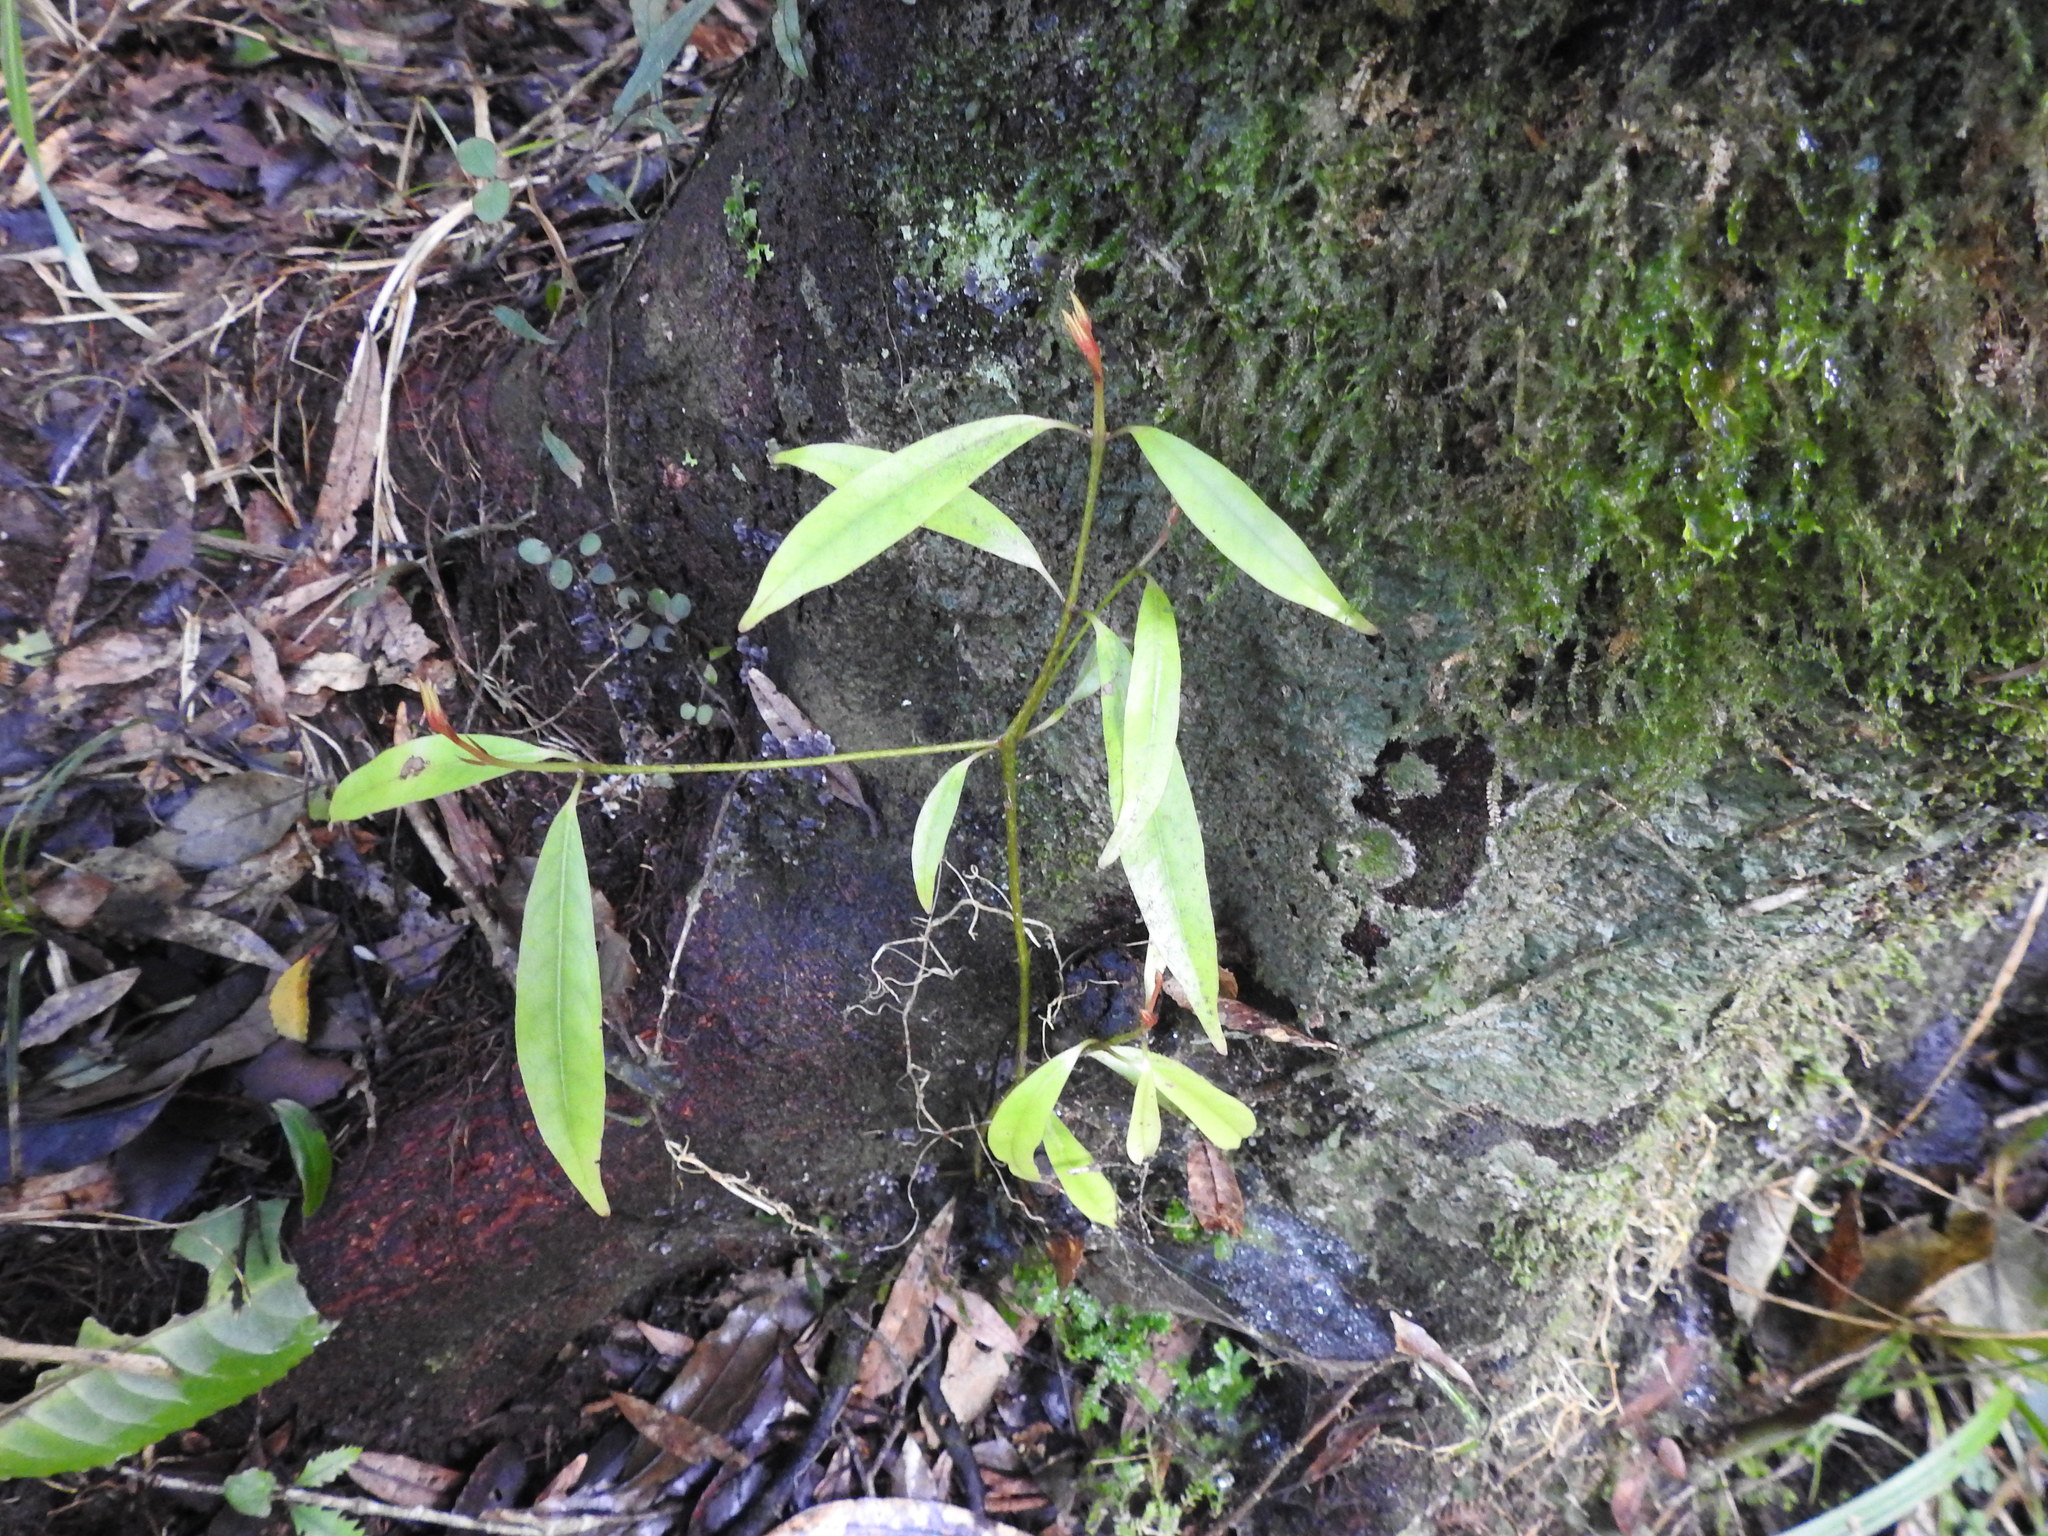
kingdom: Plantae
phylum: Tracheophyta
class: Magnoliopsida
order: Laurales
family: Lauraceae
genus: Beilschmiedia
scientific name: Beilschmiedia tawa
